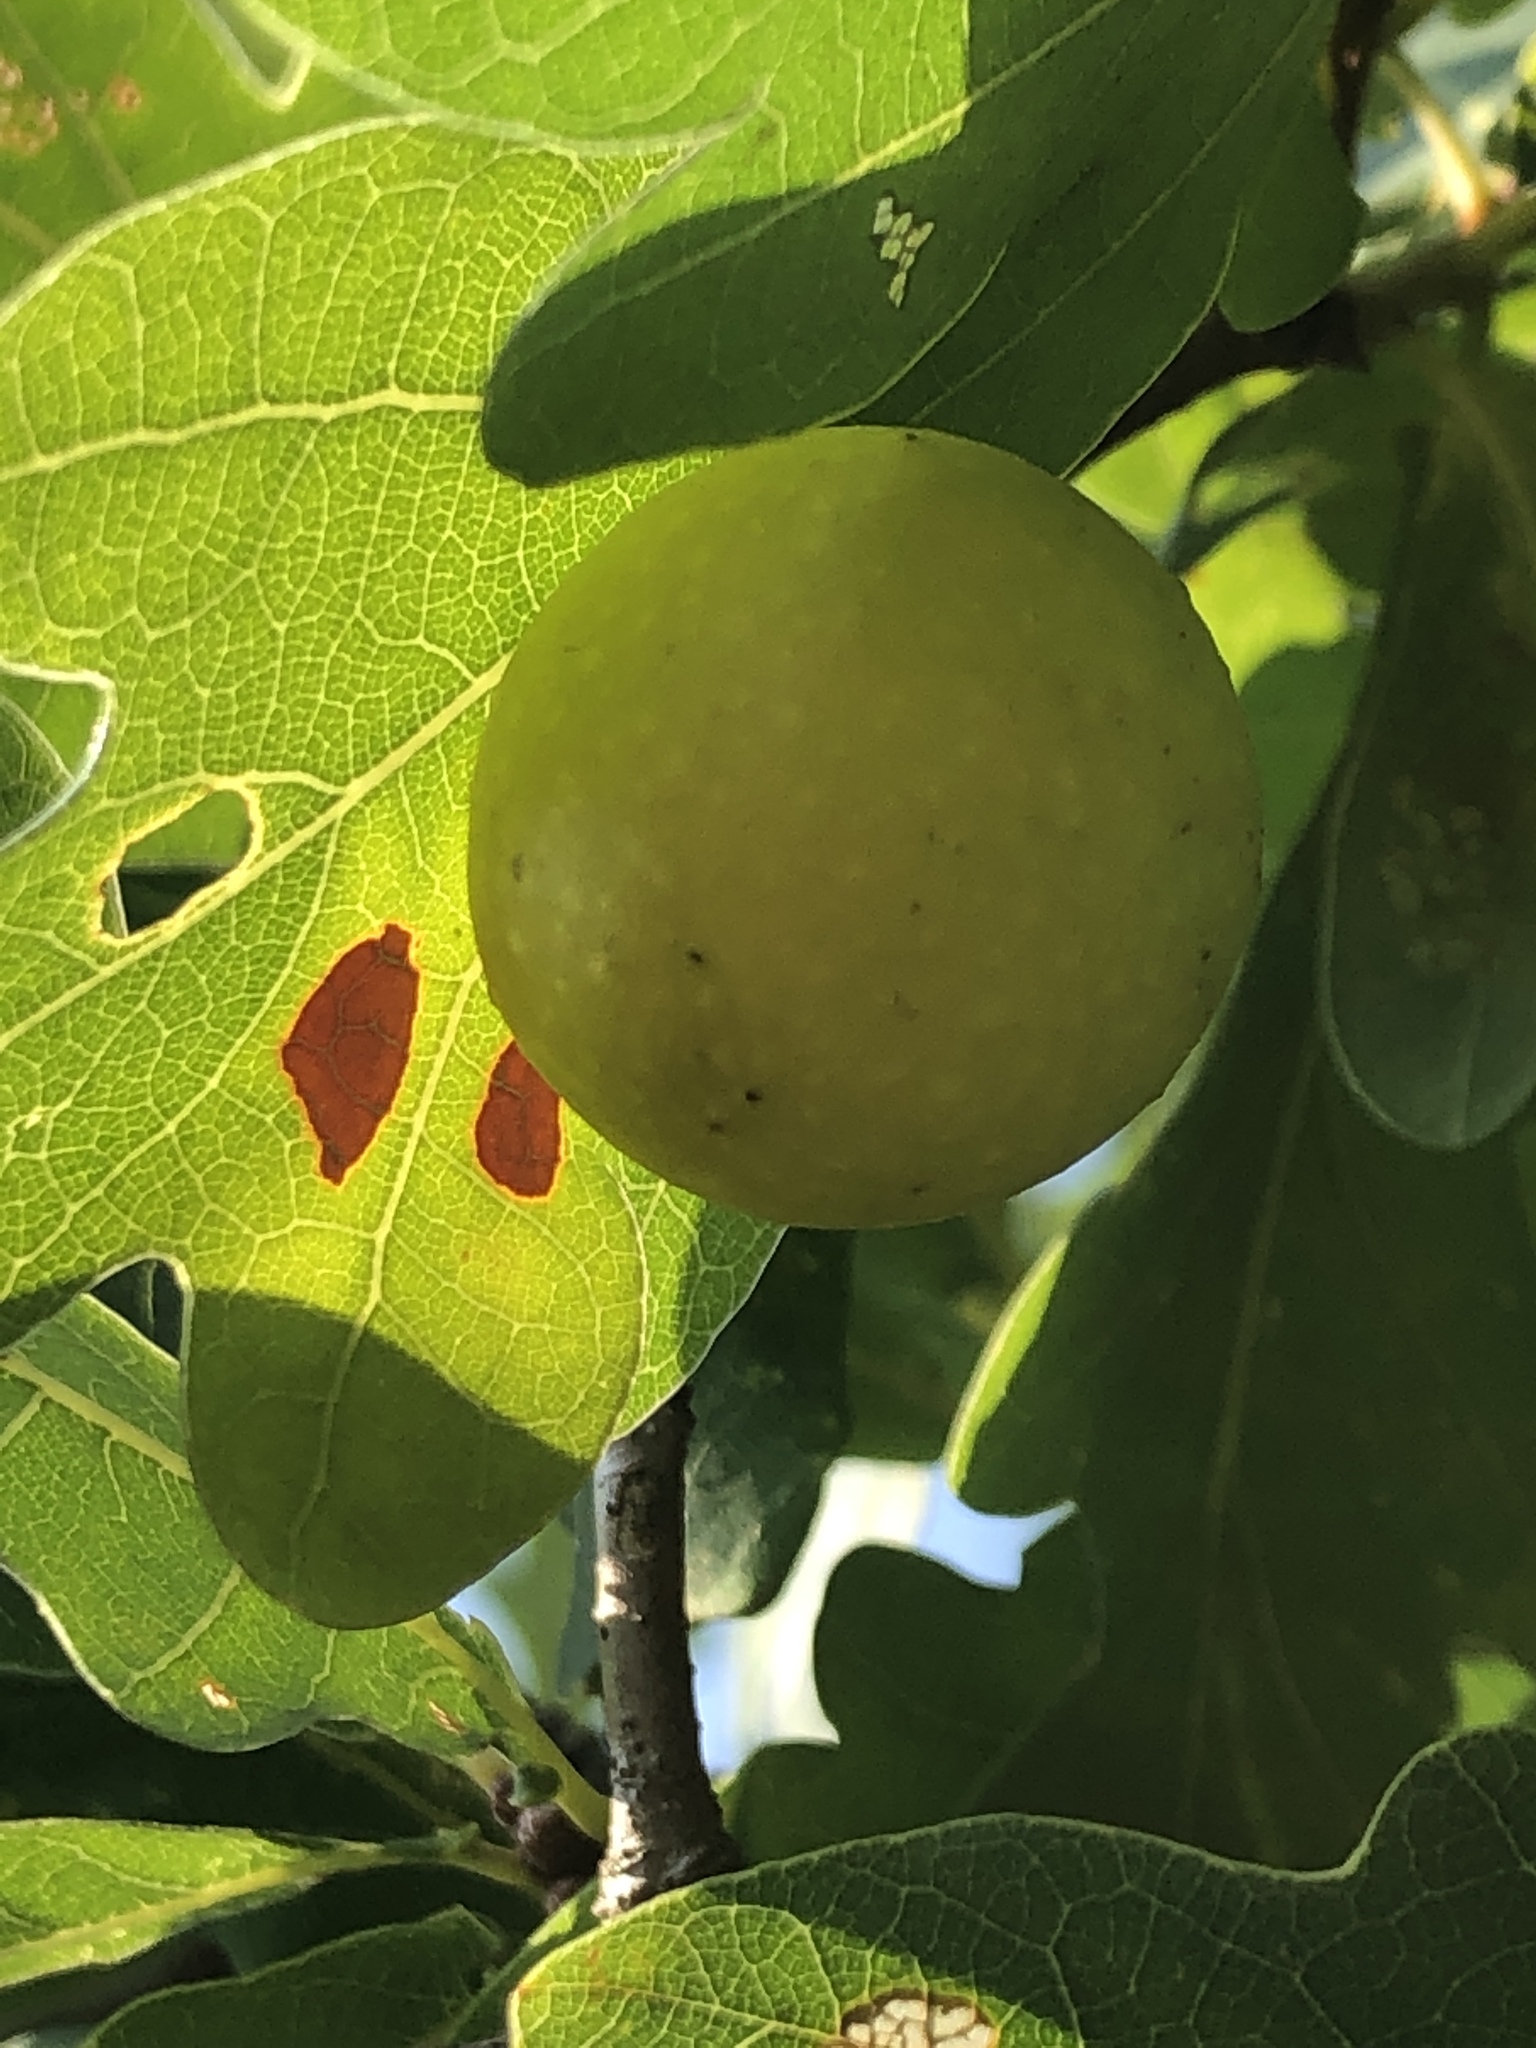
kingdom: Animalia
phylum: Arthropoda
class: Insecta
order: Hymenoptera
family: Cynipidae
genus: Cynips
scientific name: Cynips quercusfolii
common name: Cherry gall
